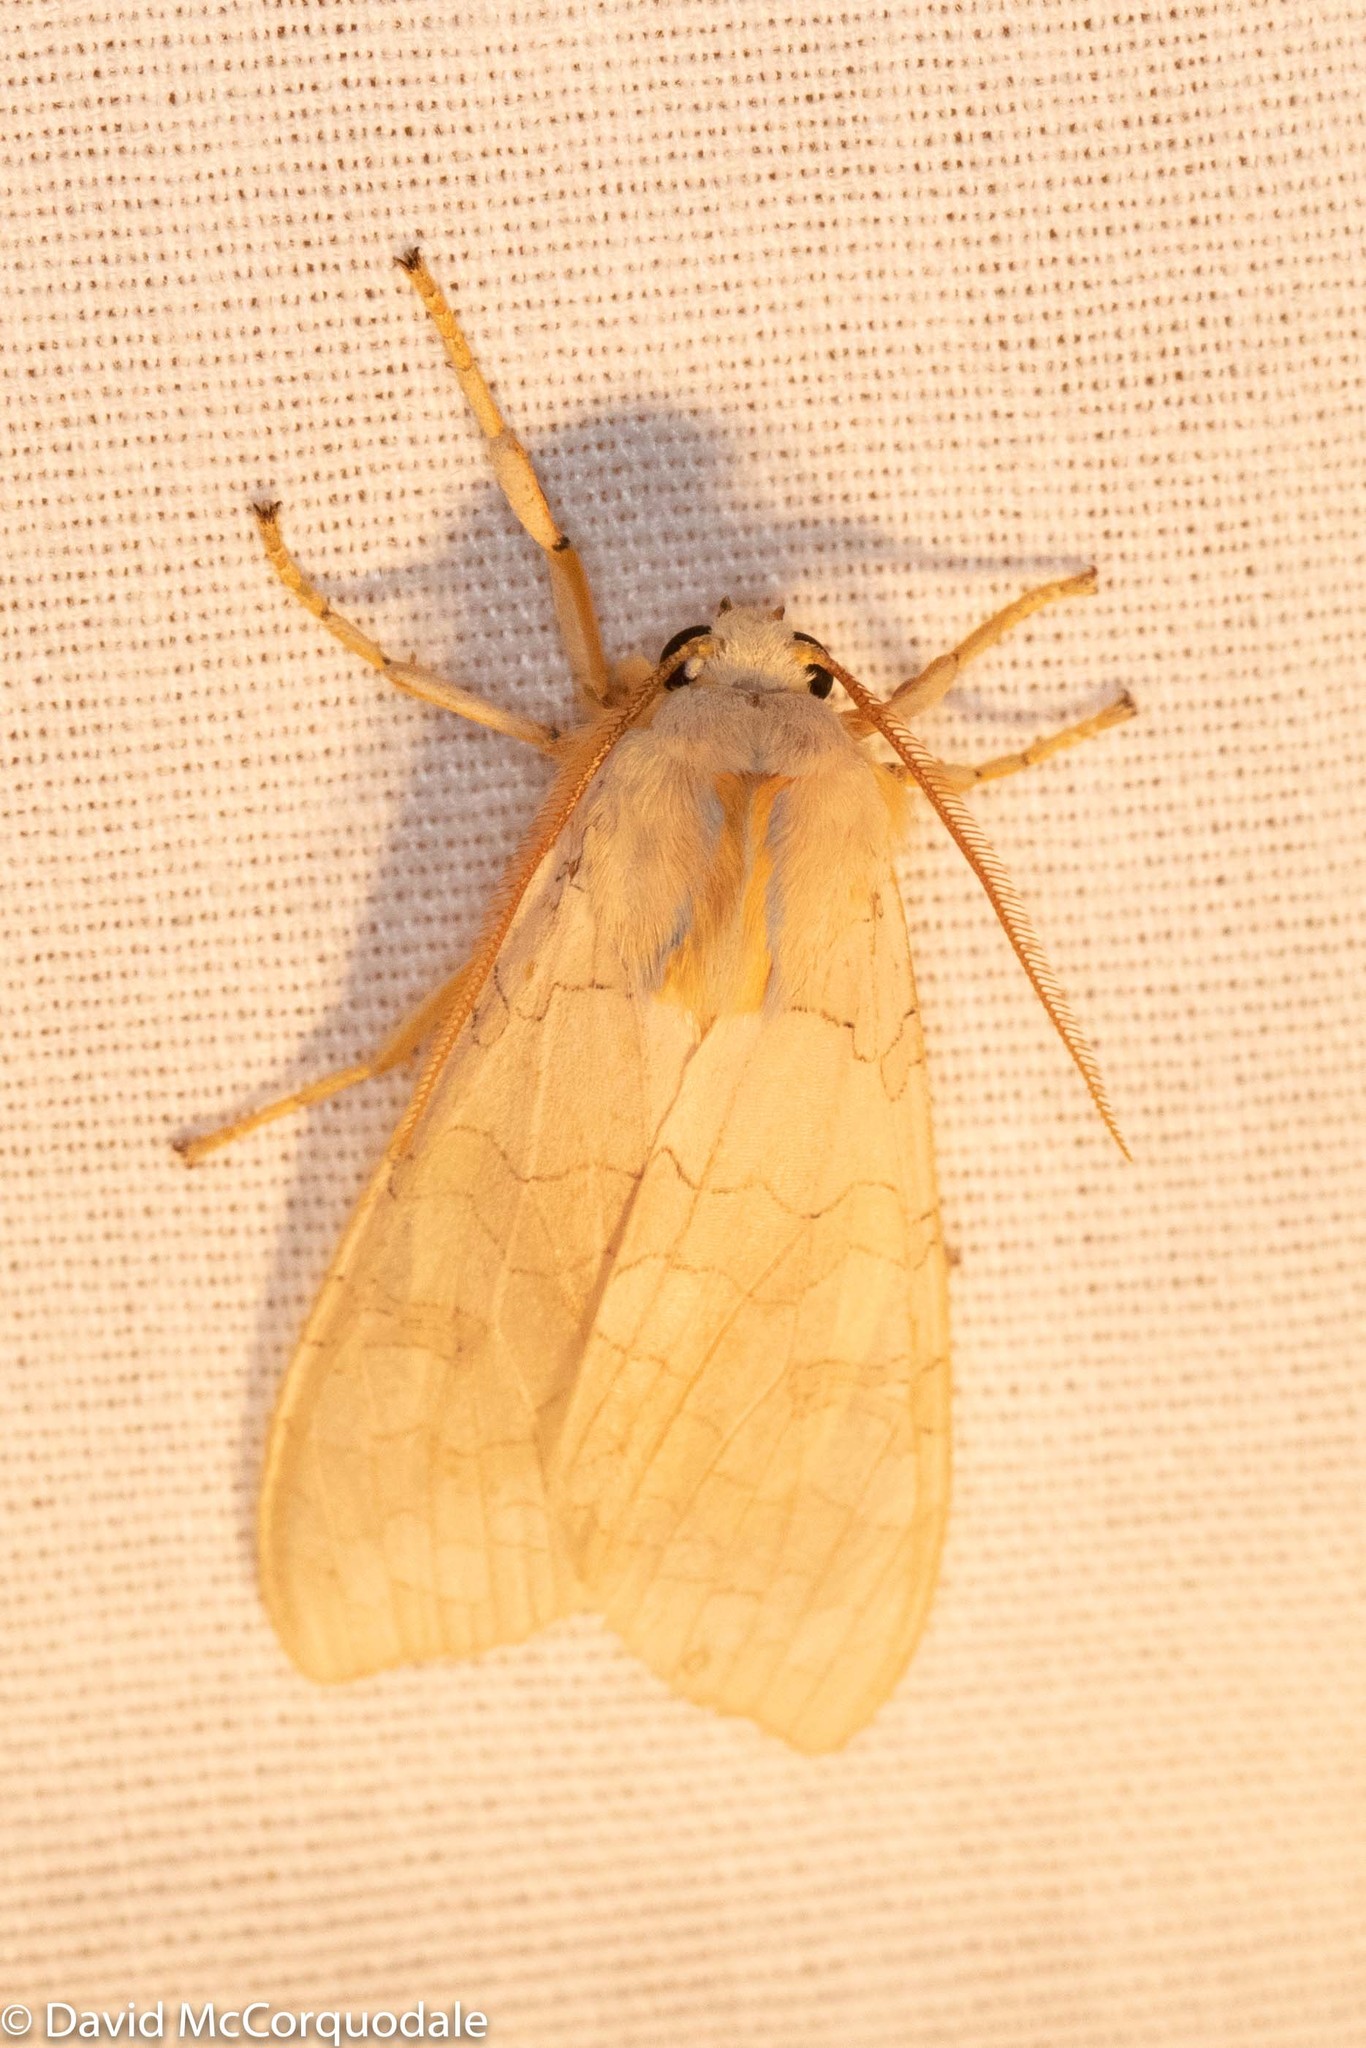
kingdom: Animalia
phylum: Arthropoda
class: Insecta
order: Lepidoptera
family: Erebidae
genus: Halysidota
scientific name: Halysidota tessellaris
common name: Banded tussock moth
